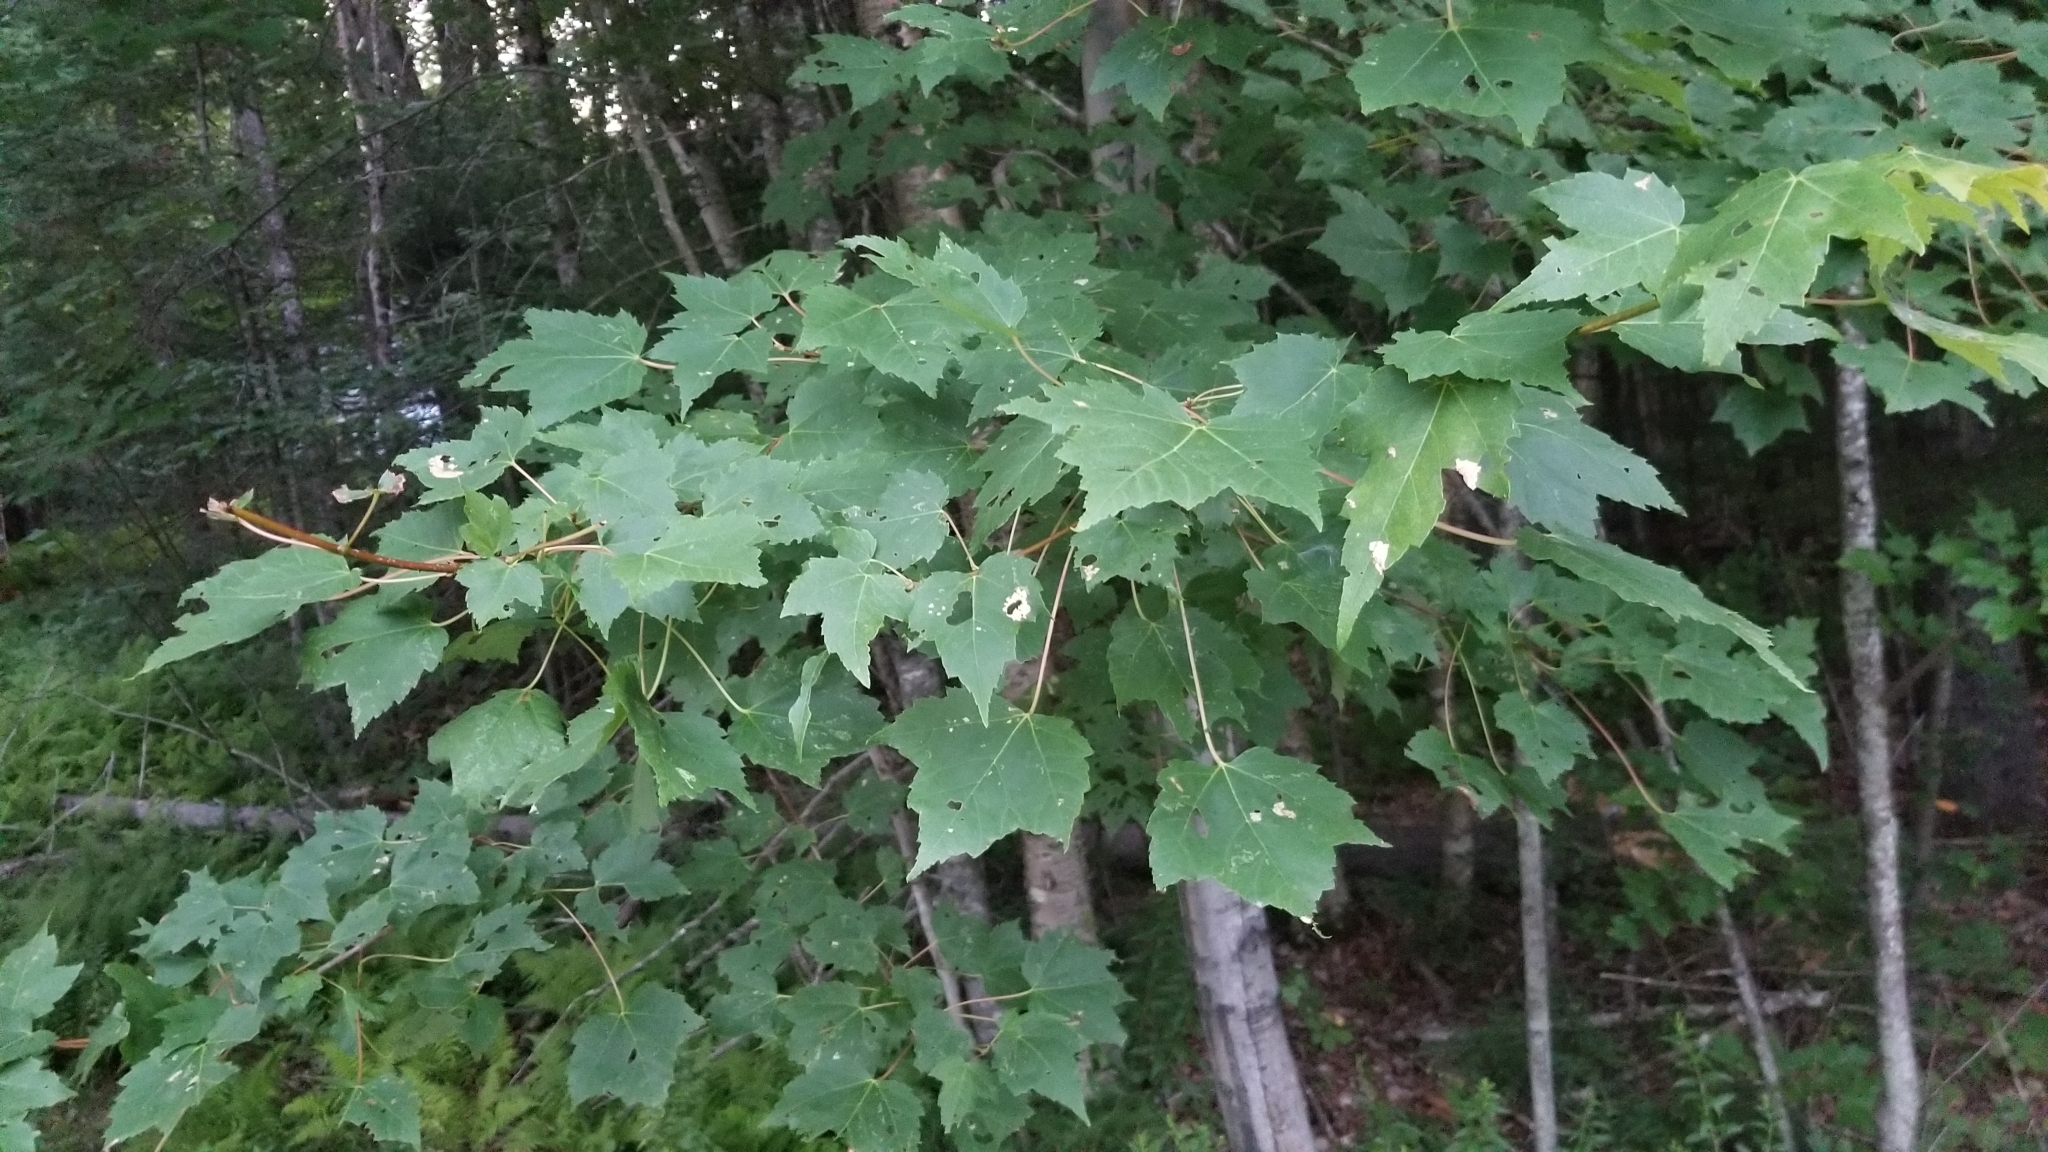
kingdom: Plantae
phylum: Tracheophyta
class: Magnoliopsida
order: Sapindales
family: Sapindaceae
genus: Acer
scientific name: Acer rubrum
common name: Red maple
